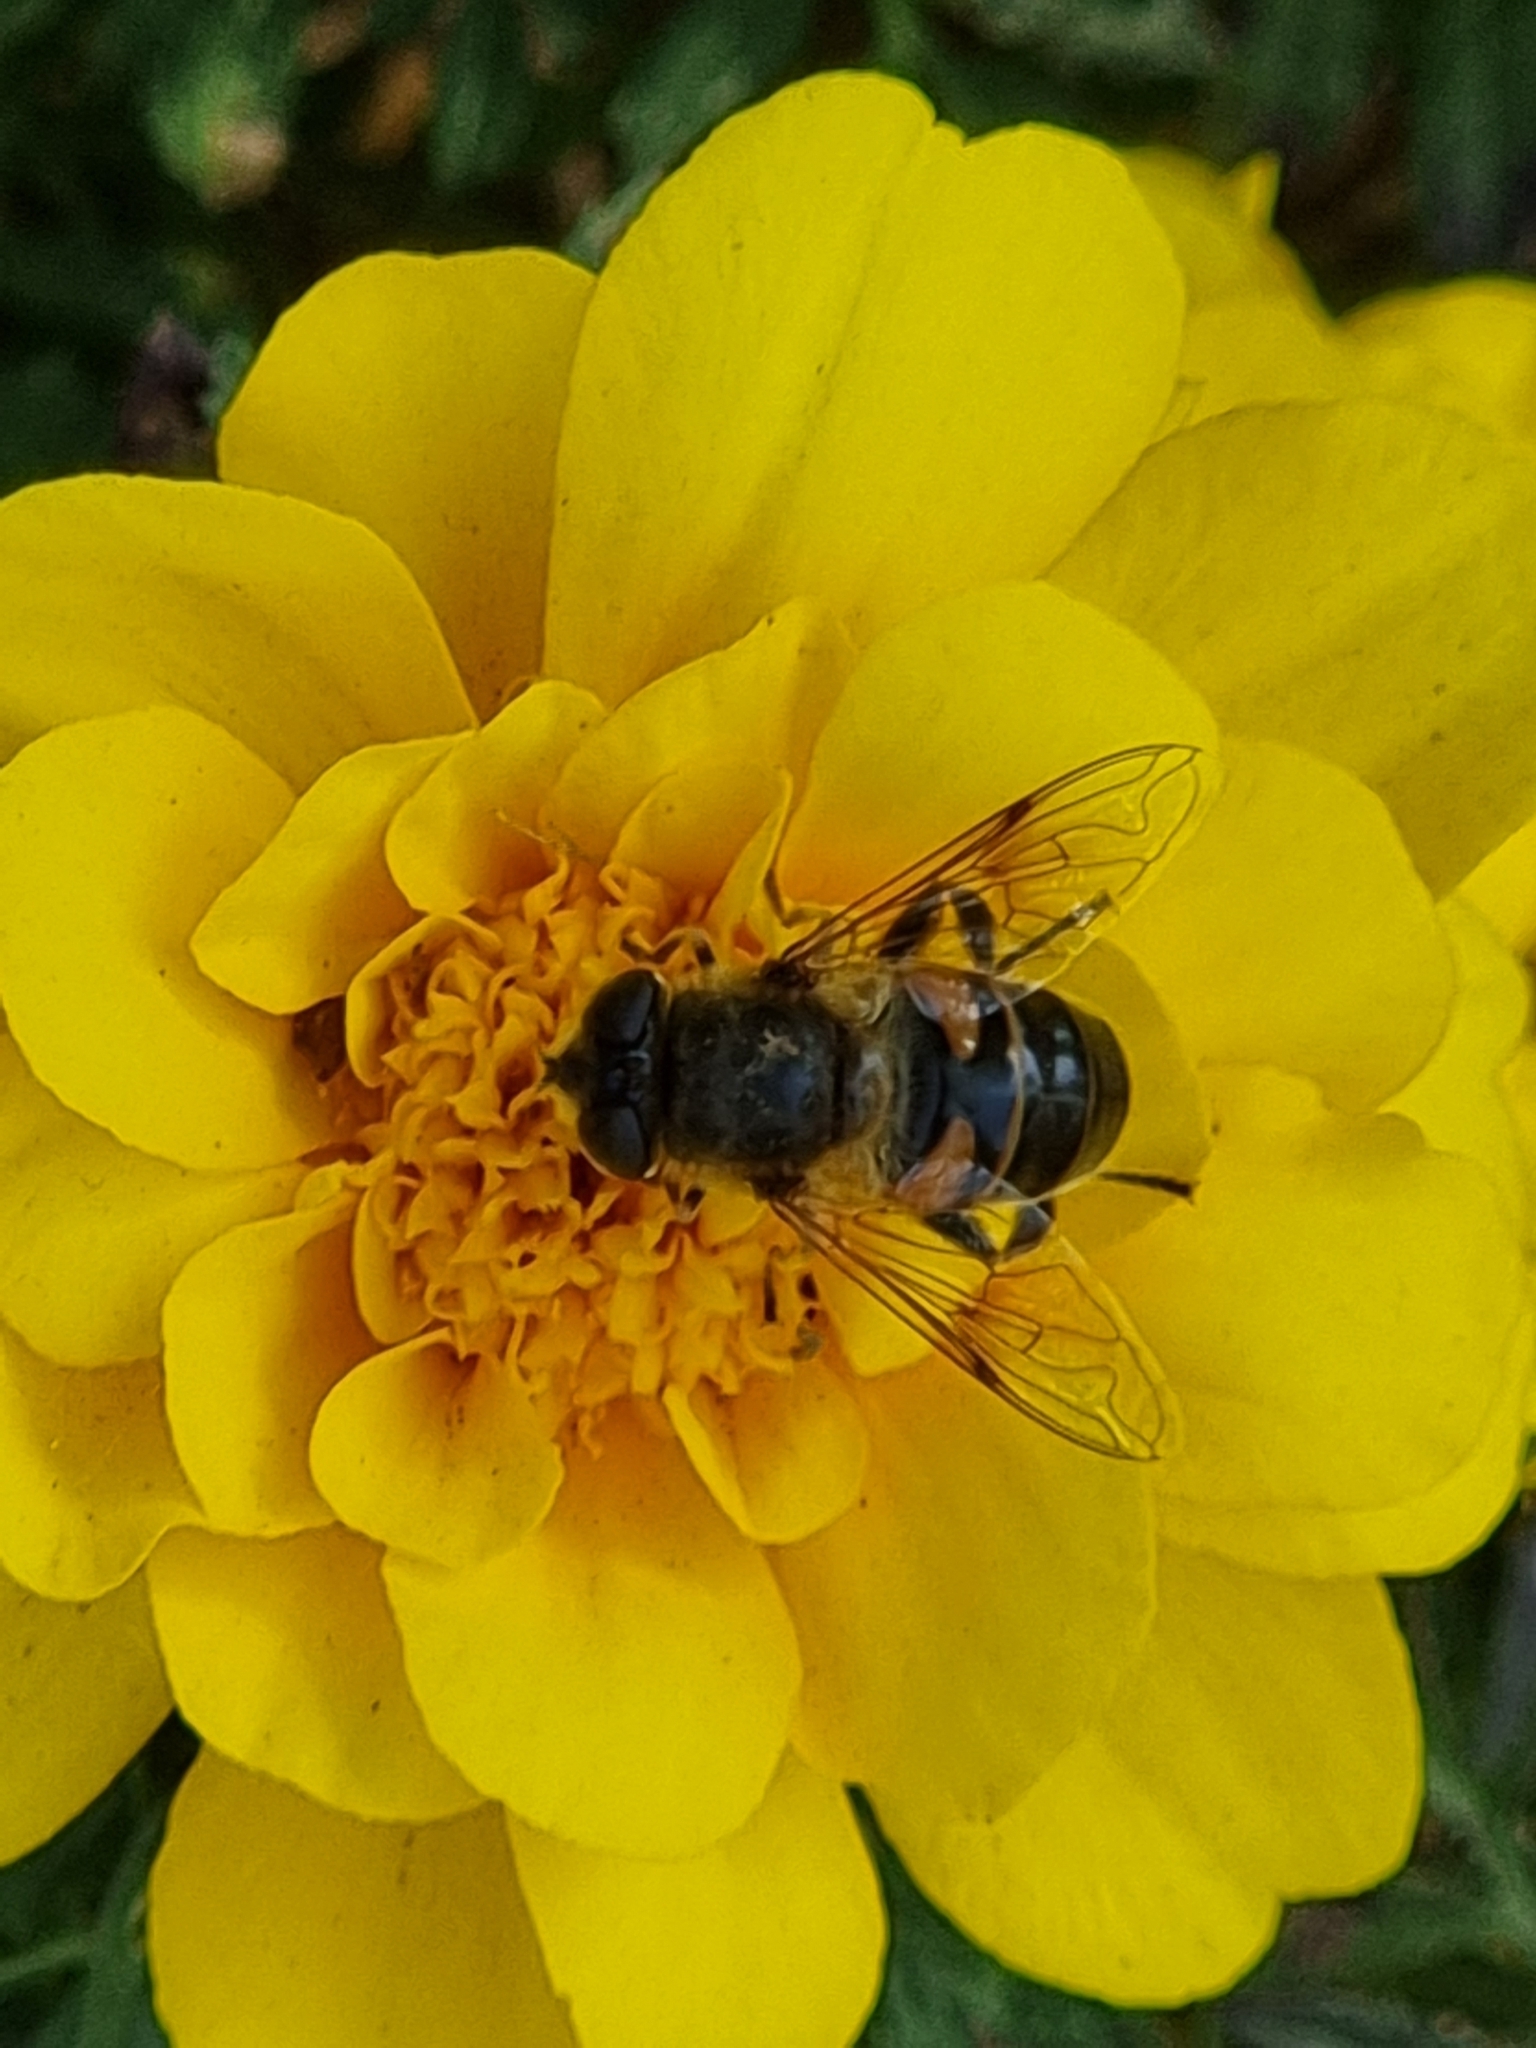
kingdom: Animalia
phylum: Arthropoda
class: Insecta
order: Diptera
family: Syrphidae
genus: Eristalis
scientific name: Eristalis tenax
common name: Drone fly
